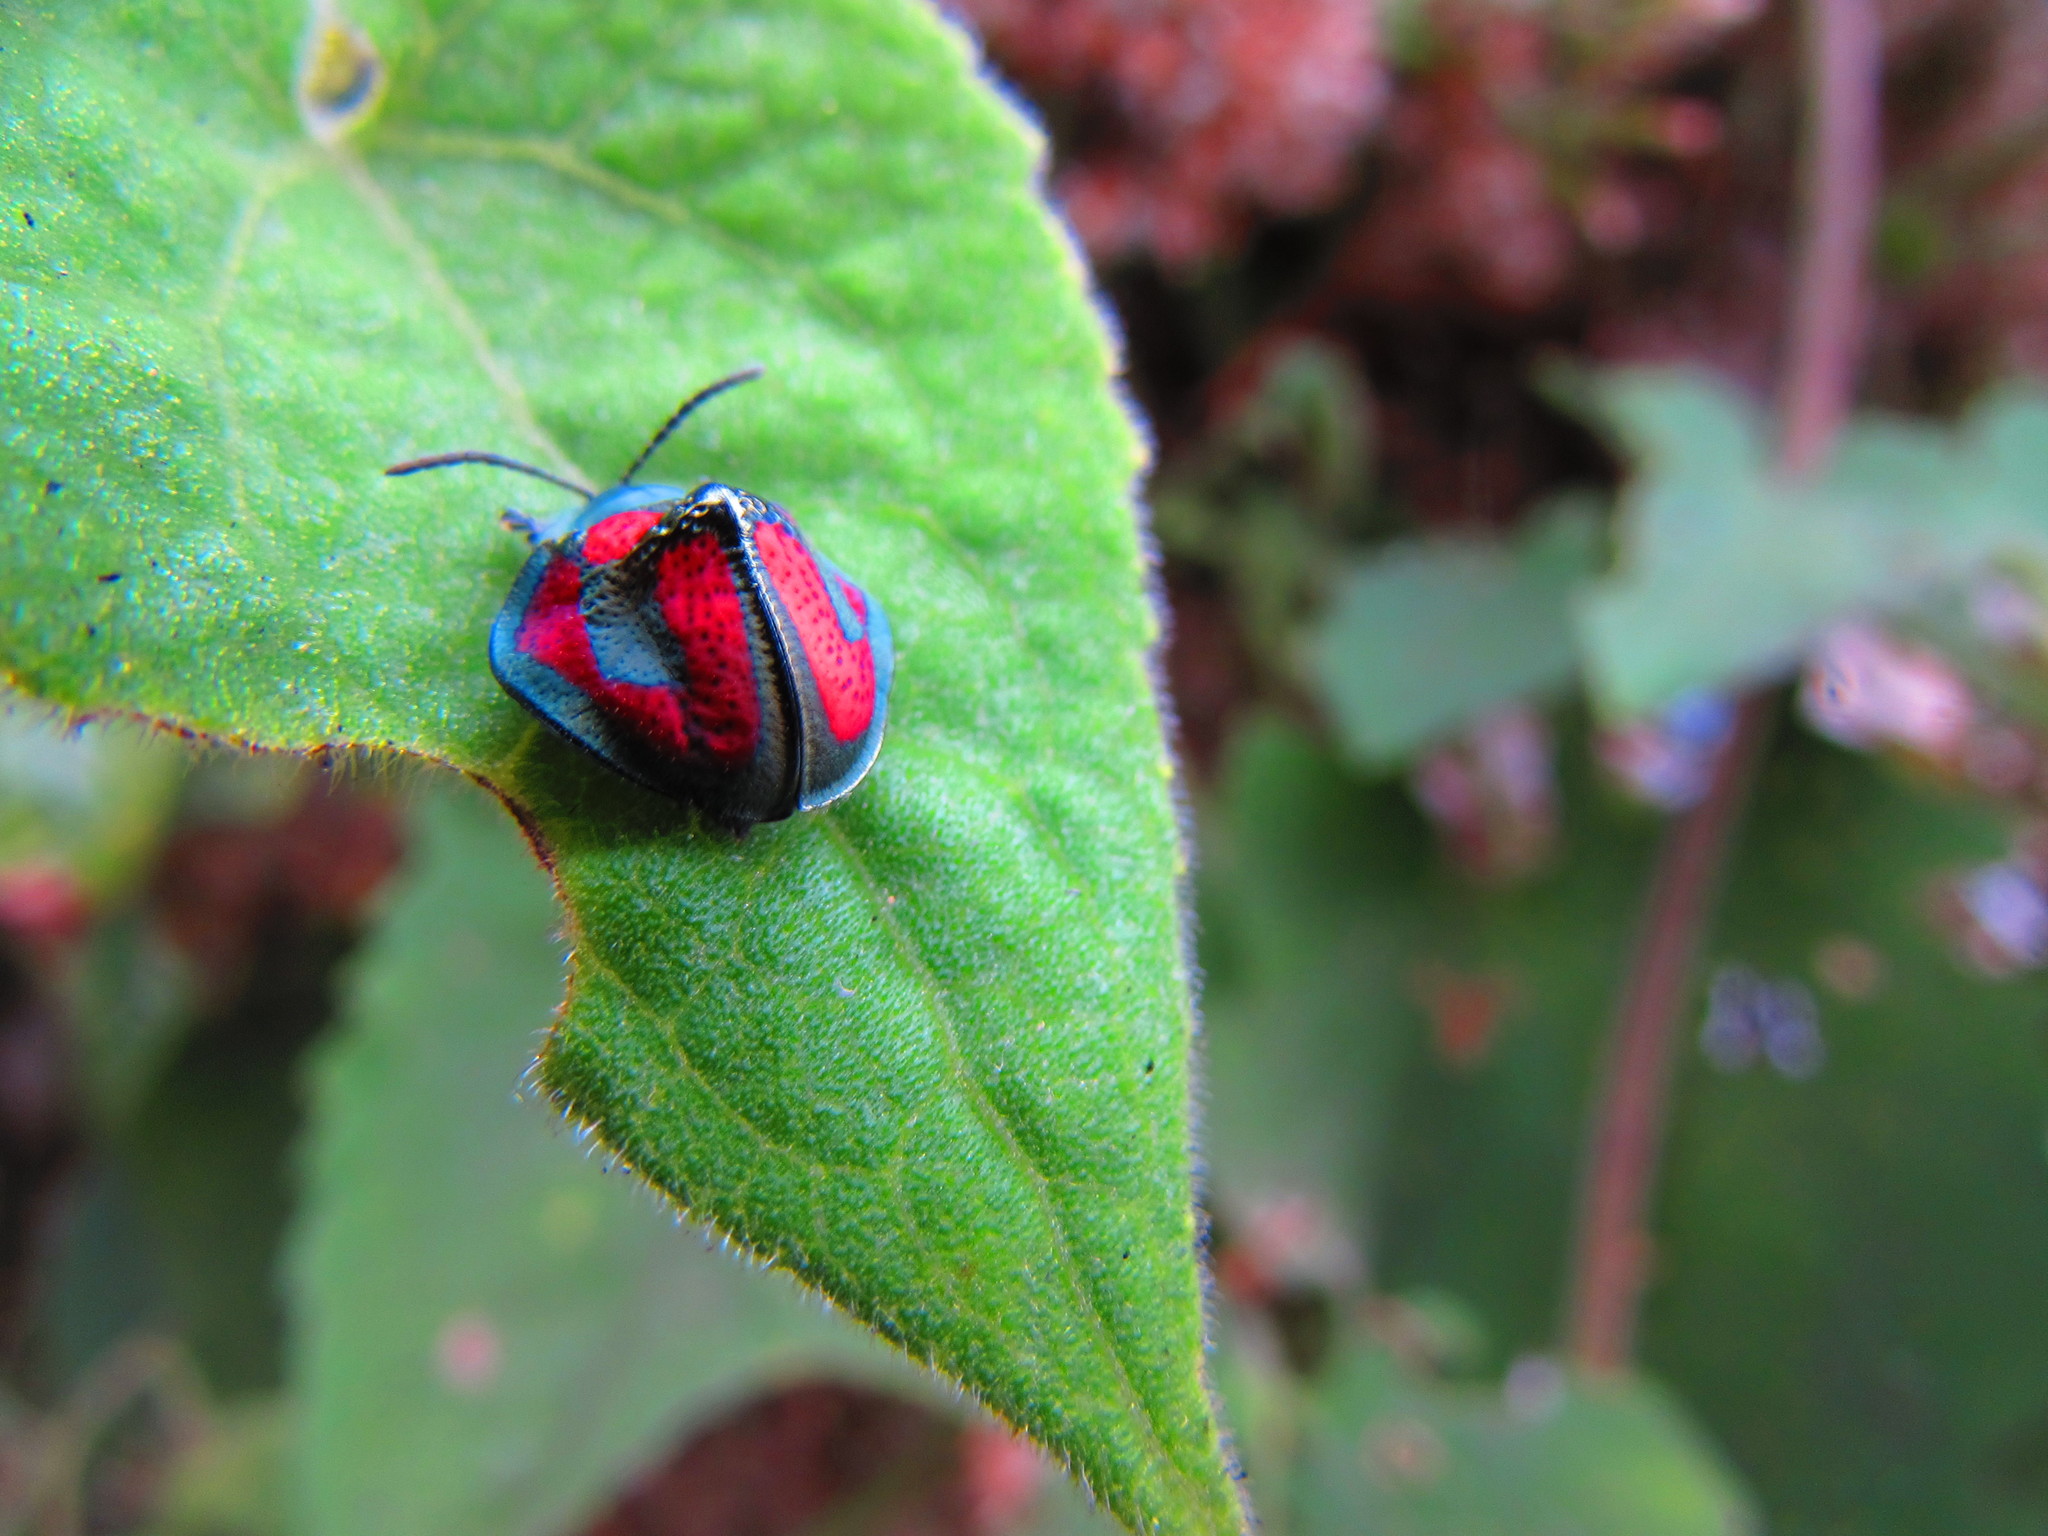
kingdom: Animalia
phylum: Arthropoda
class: Insecta
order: Coleoptera
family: Chrysomelidae
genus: Stolas
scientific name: Stolas punicea
